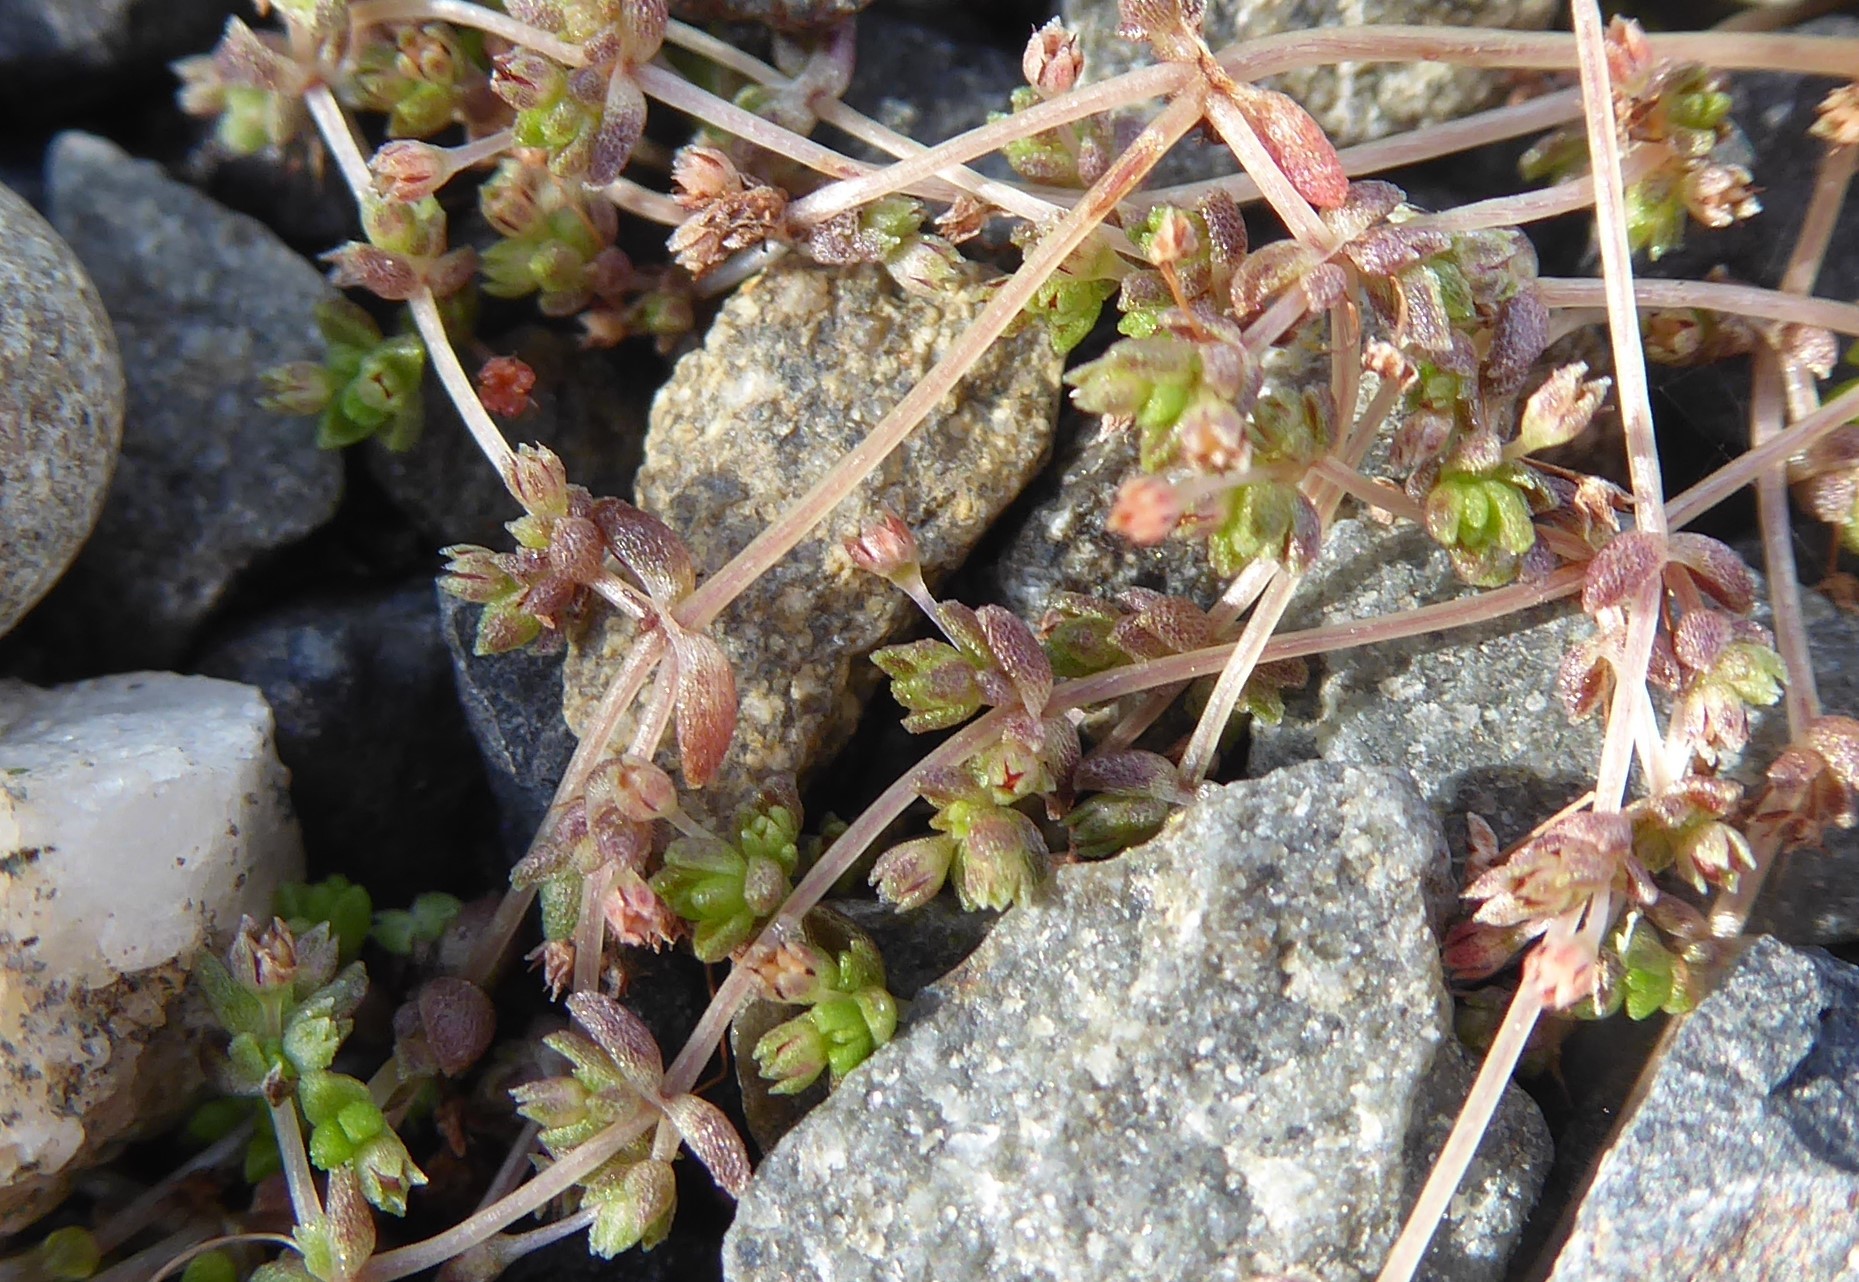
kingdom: Plantae
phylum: Tracheophyta
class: Magnoliopsida
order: Saxifragales
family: Crassulaceae
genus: Crassula
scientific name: Crassula mataikona
